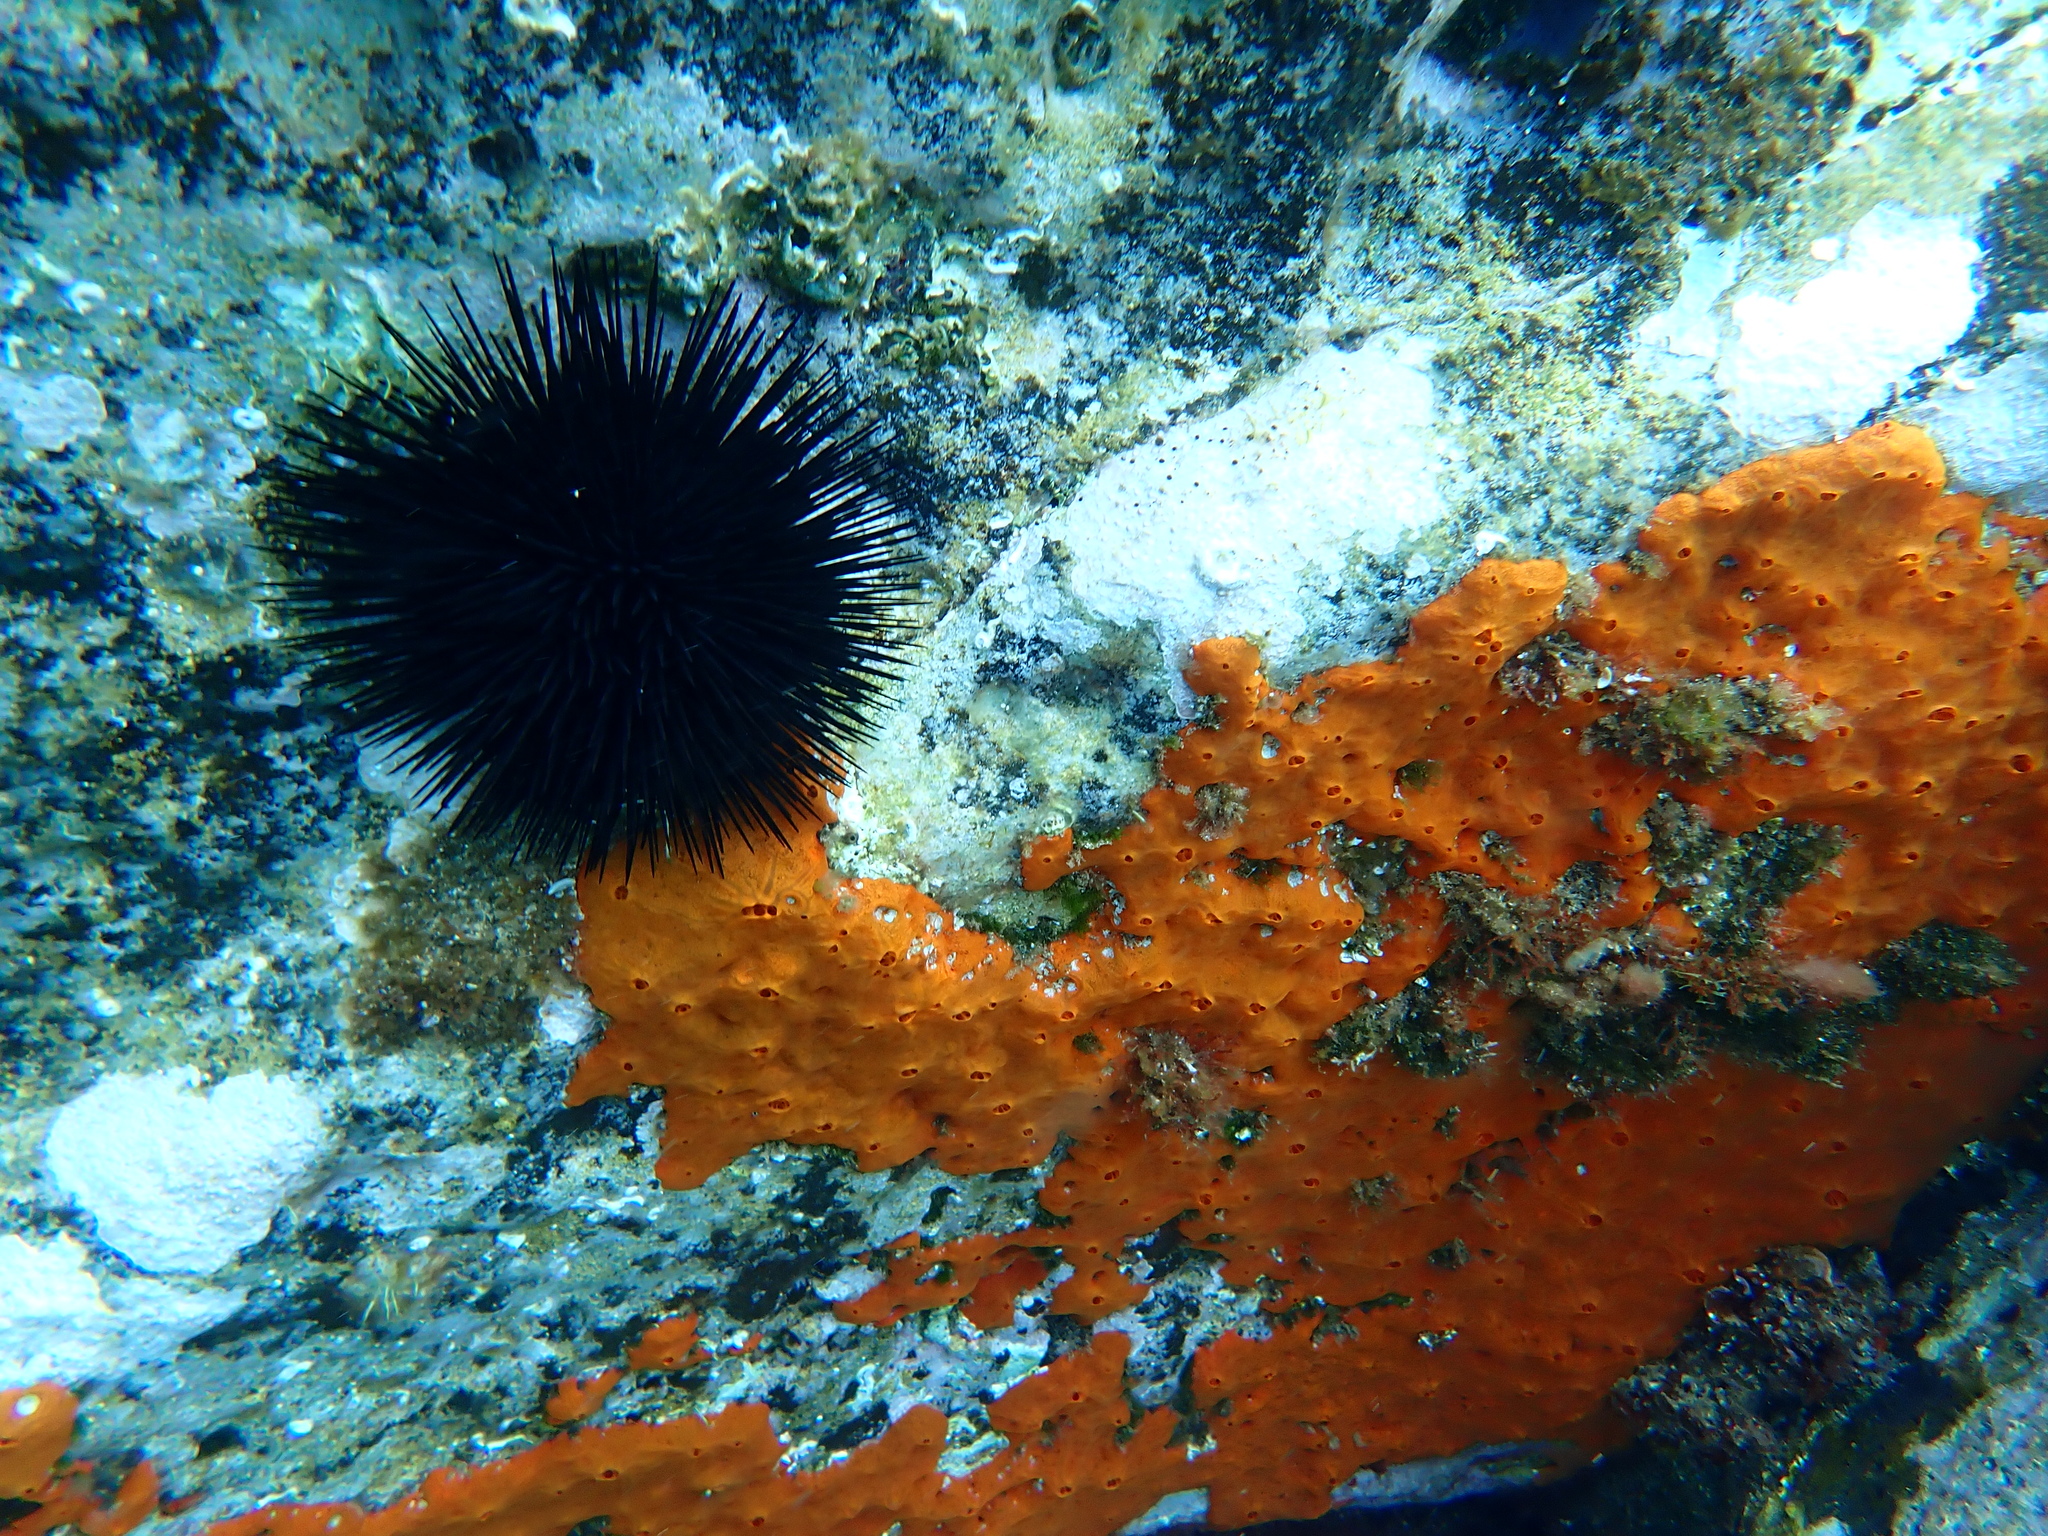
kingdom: Animalia
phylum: Echinodermata
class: Echinoidea
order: Arbacioida
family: Arbaciidae
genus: Arbacia
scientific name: Arbacia lixula
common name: Black sea urchin
